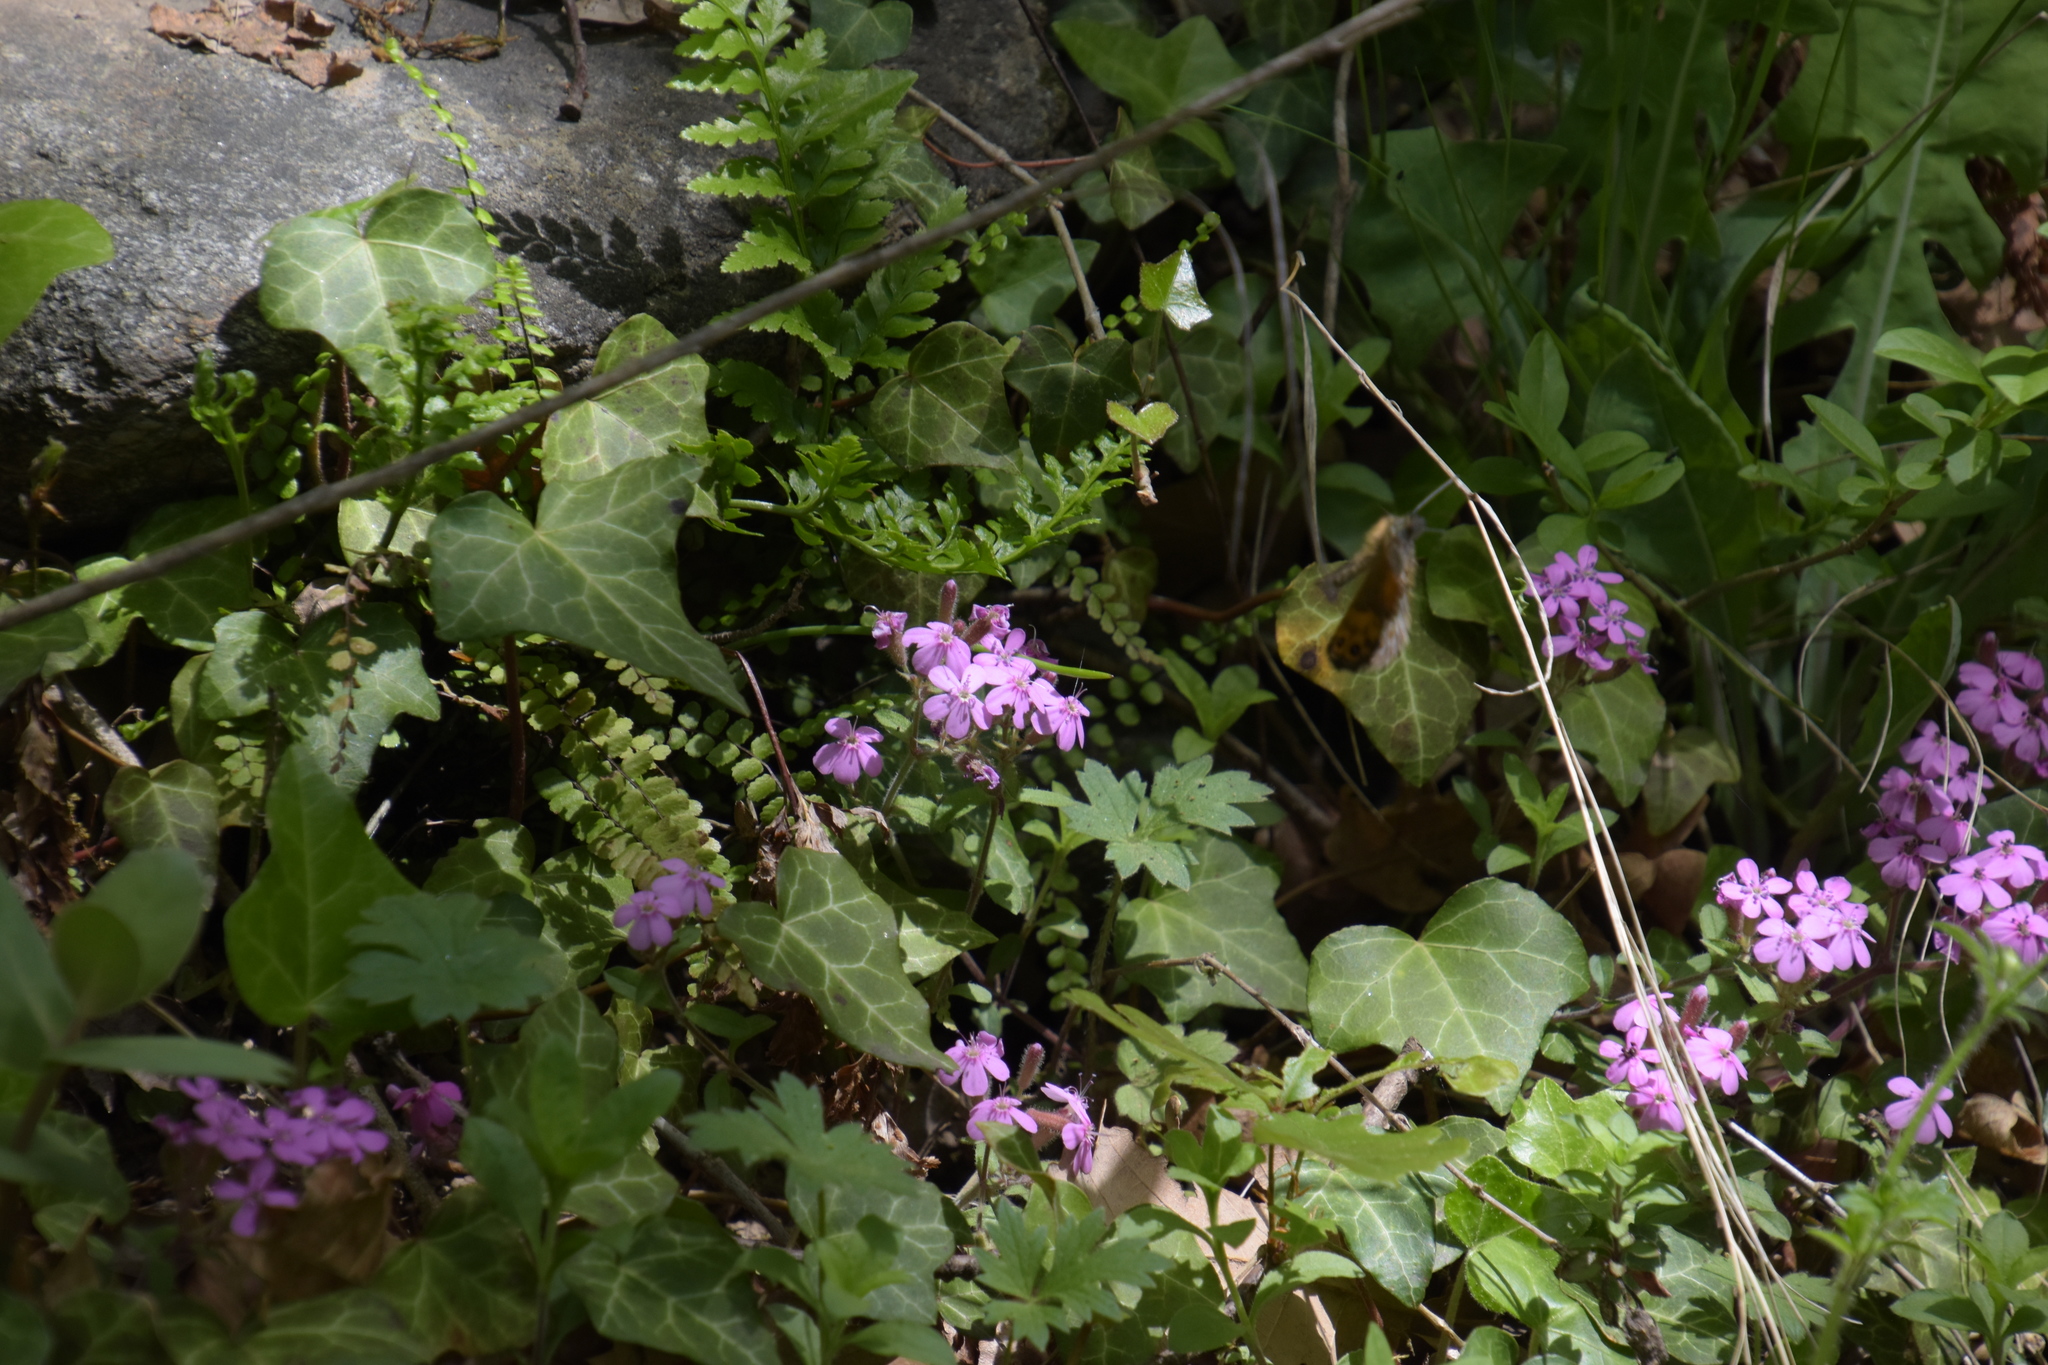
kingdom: Plantae
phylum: Tracheophyta
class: Magnoliopsida
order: Caryophyllales
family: Caryophyllaceae
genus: Saponaria
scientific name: Saponaria ocymoides
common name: Rock soapwort
